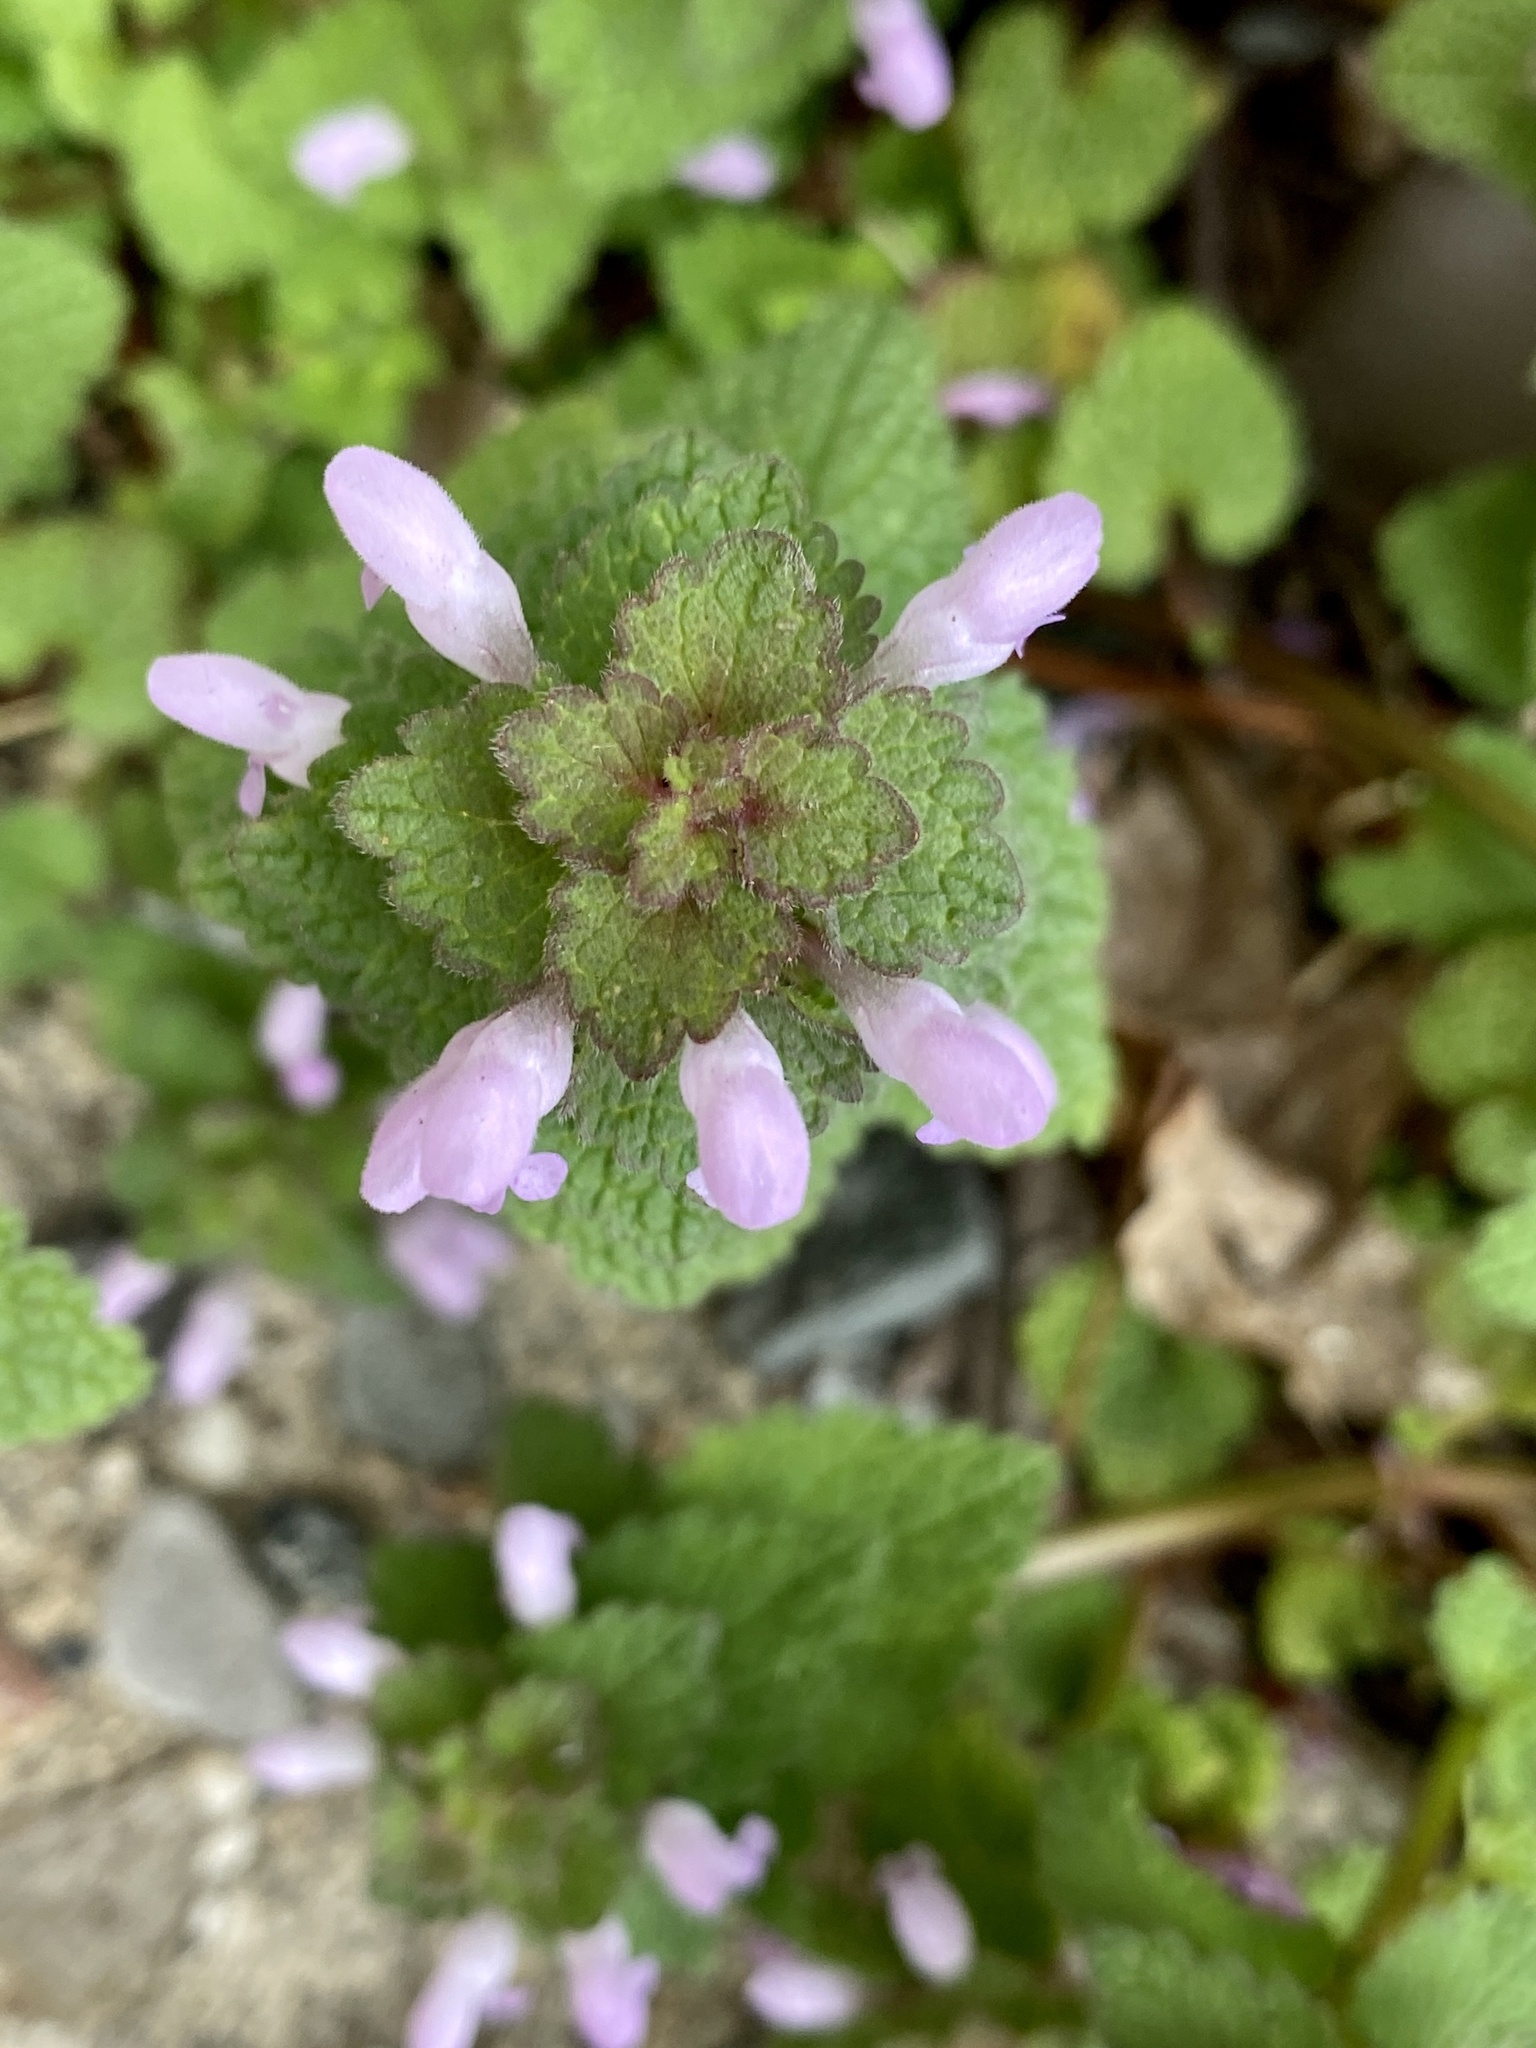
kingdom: Plantae
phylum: Tracheophyta
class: Magnoliopsida
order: Lamiales
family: Lamiaceae
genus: Lamium
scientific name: Lamium purpureum
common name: Red dead-nettle
